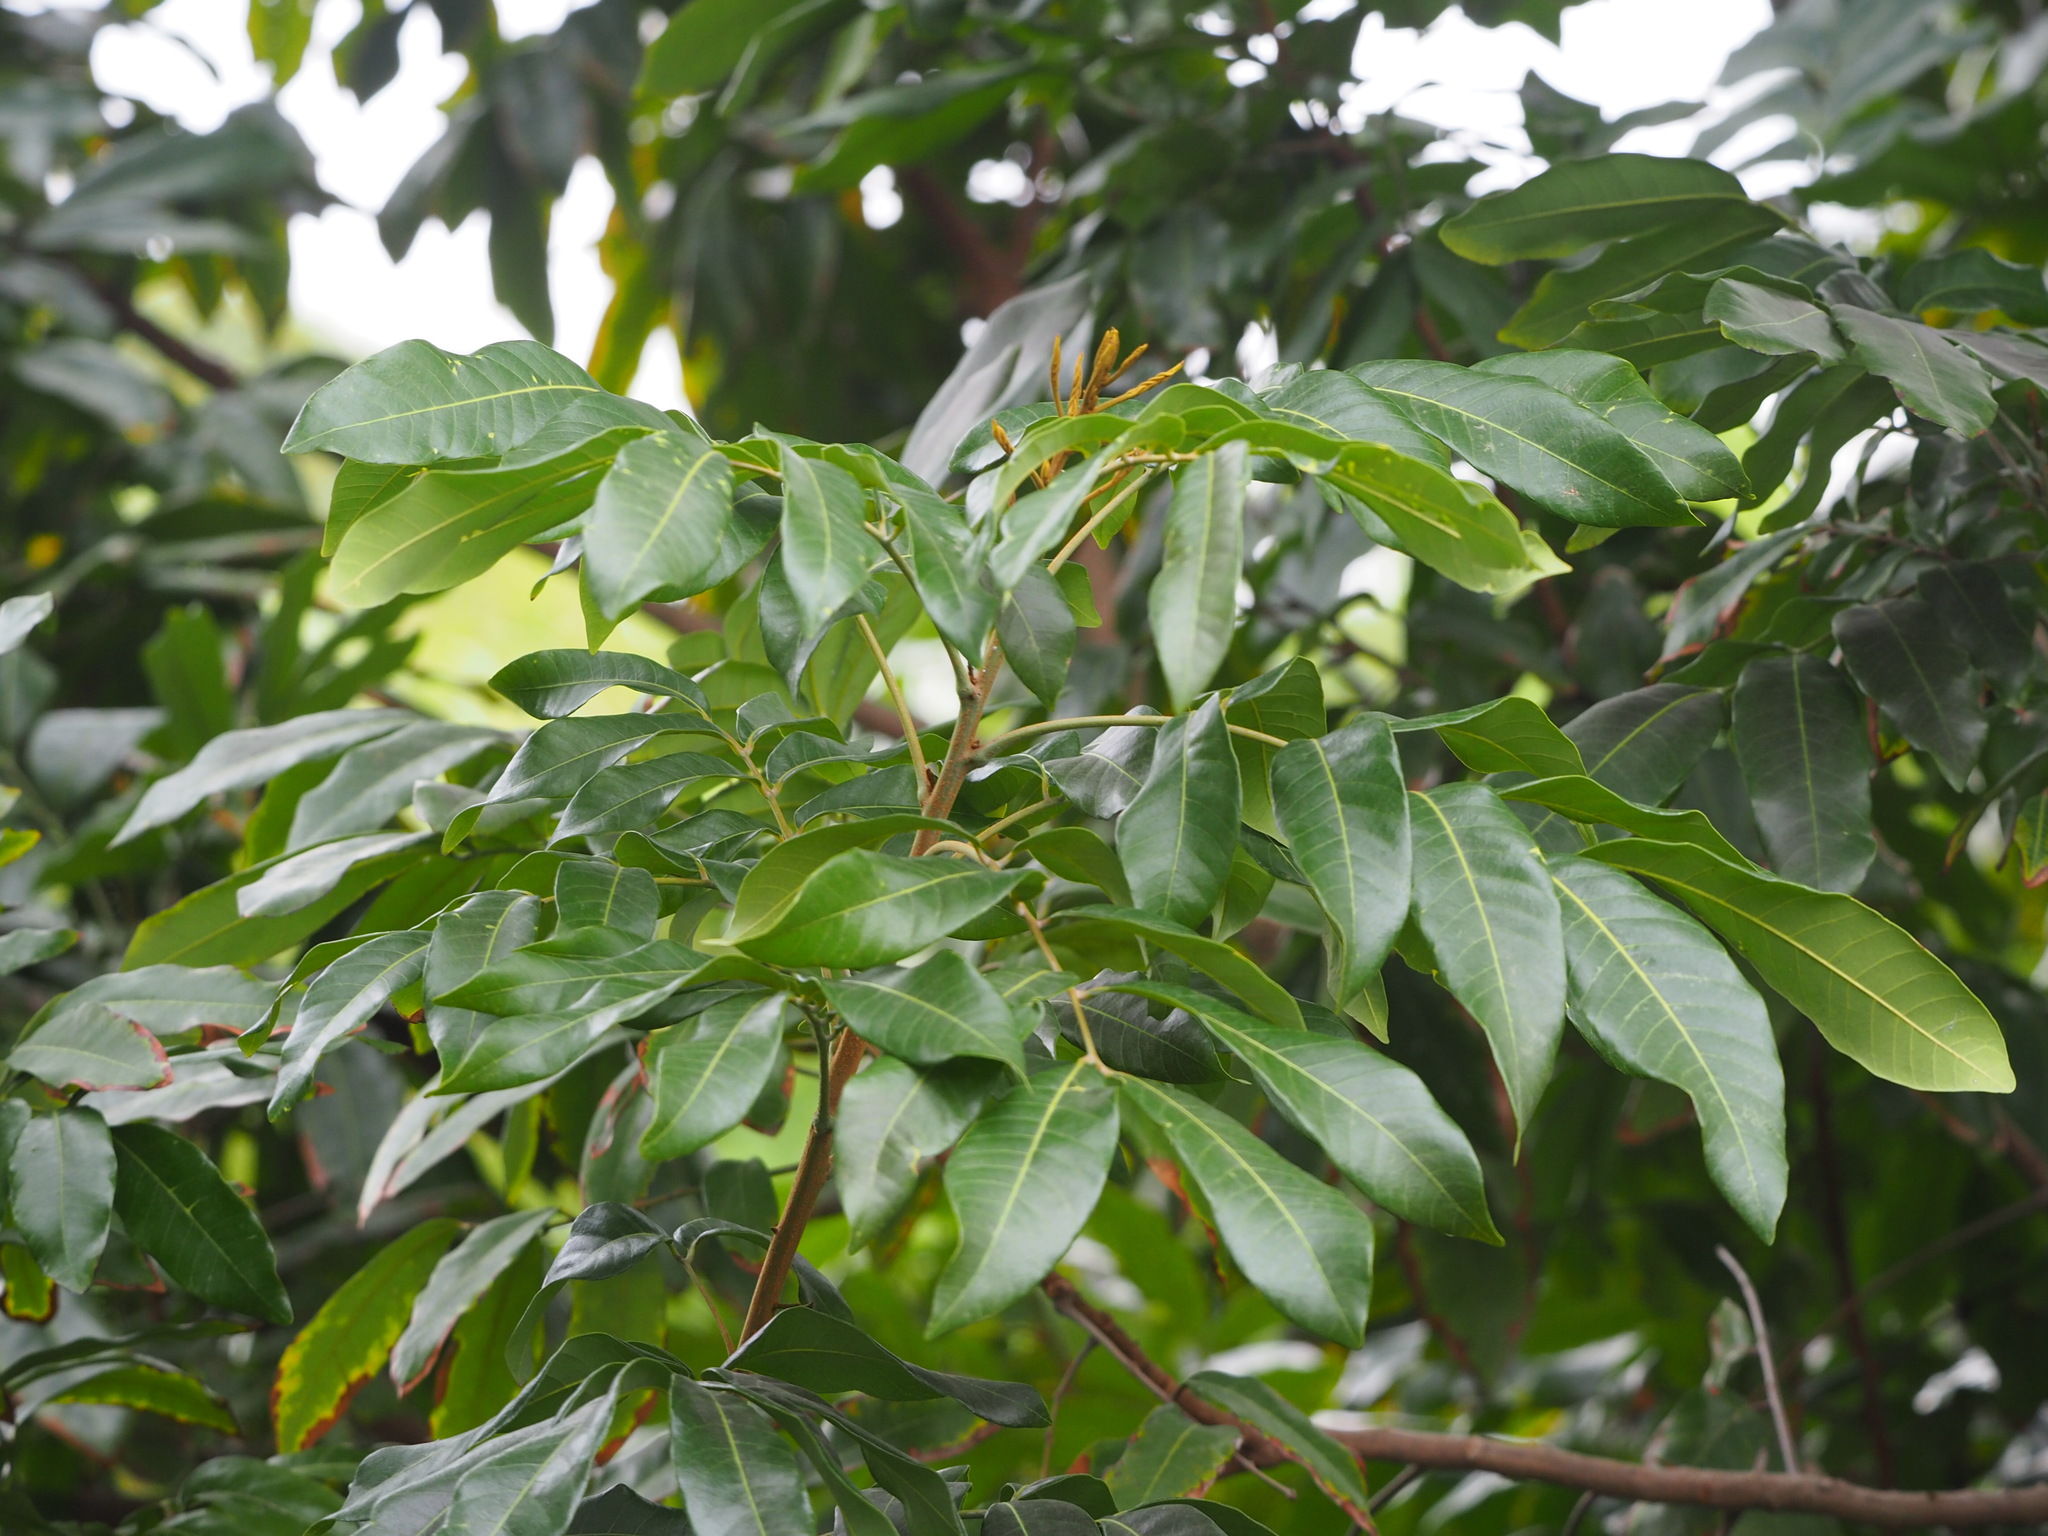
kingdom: Plantae
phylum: Tracheophyta
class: Magnoliopsida
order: Sapindales
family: Sapindaceae
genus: Dimocarpus
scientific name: Dimocarpus longan
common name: Longan
